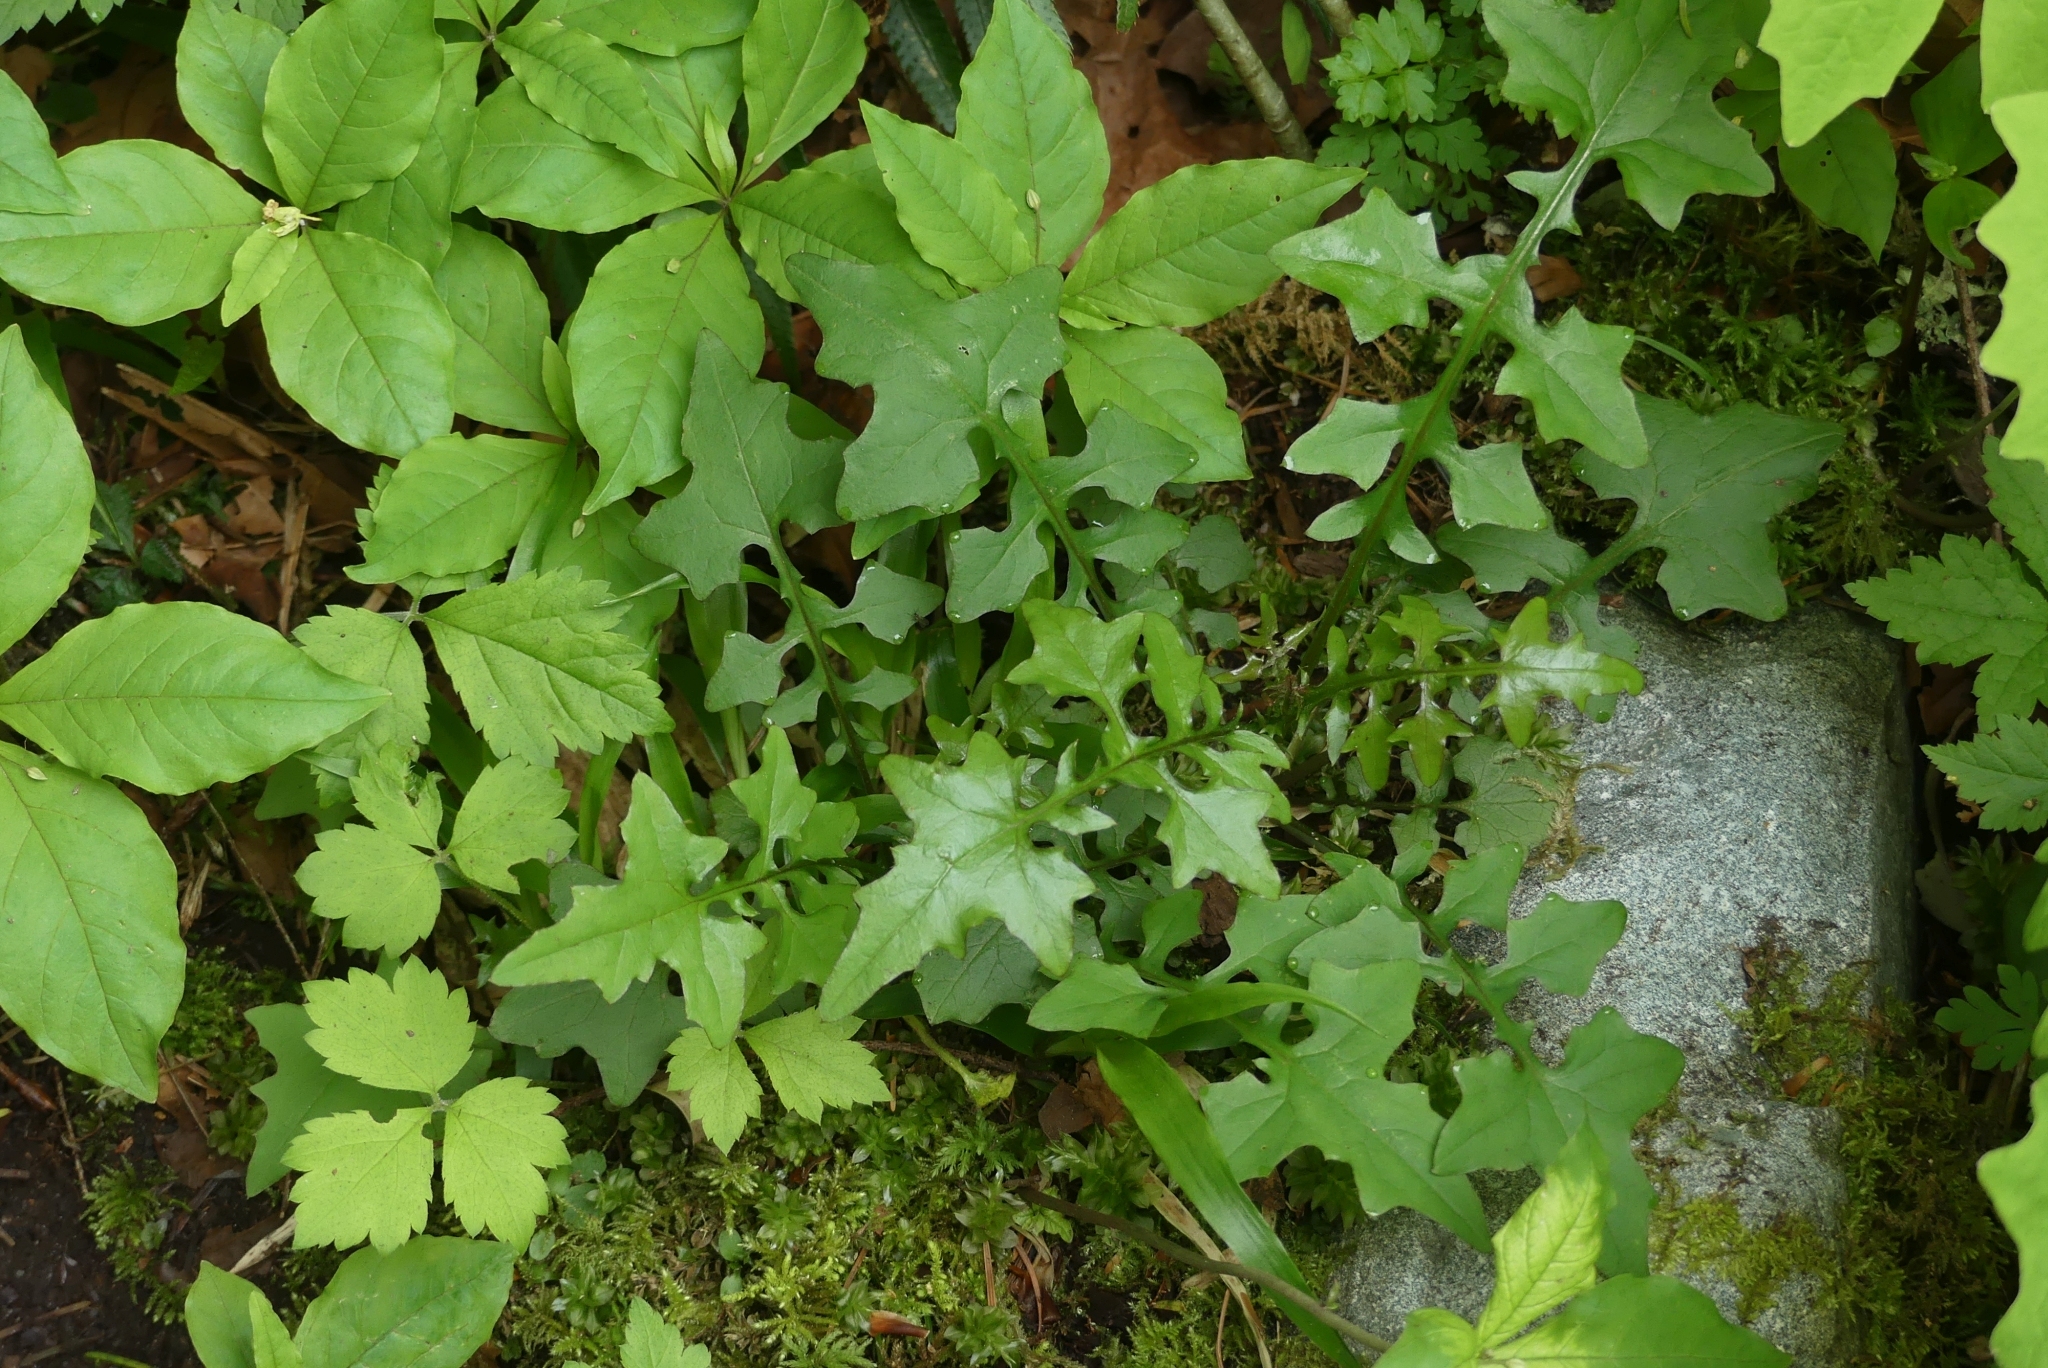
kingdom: Plantae
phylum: Tracheophyta
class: Magnoliopsida
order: Asterales
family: Asteraceae
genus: Mycelis
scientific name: Mycelis muralis
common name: Wall lettuce
